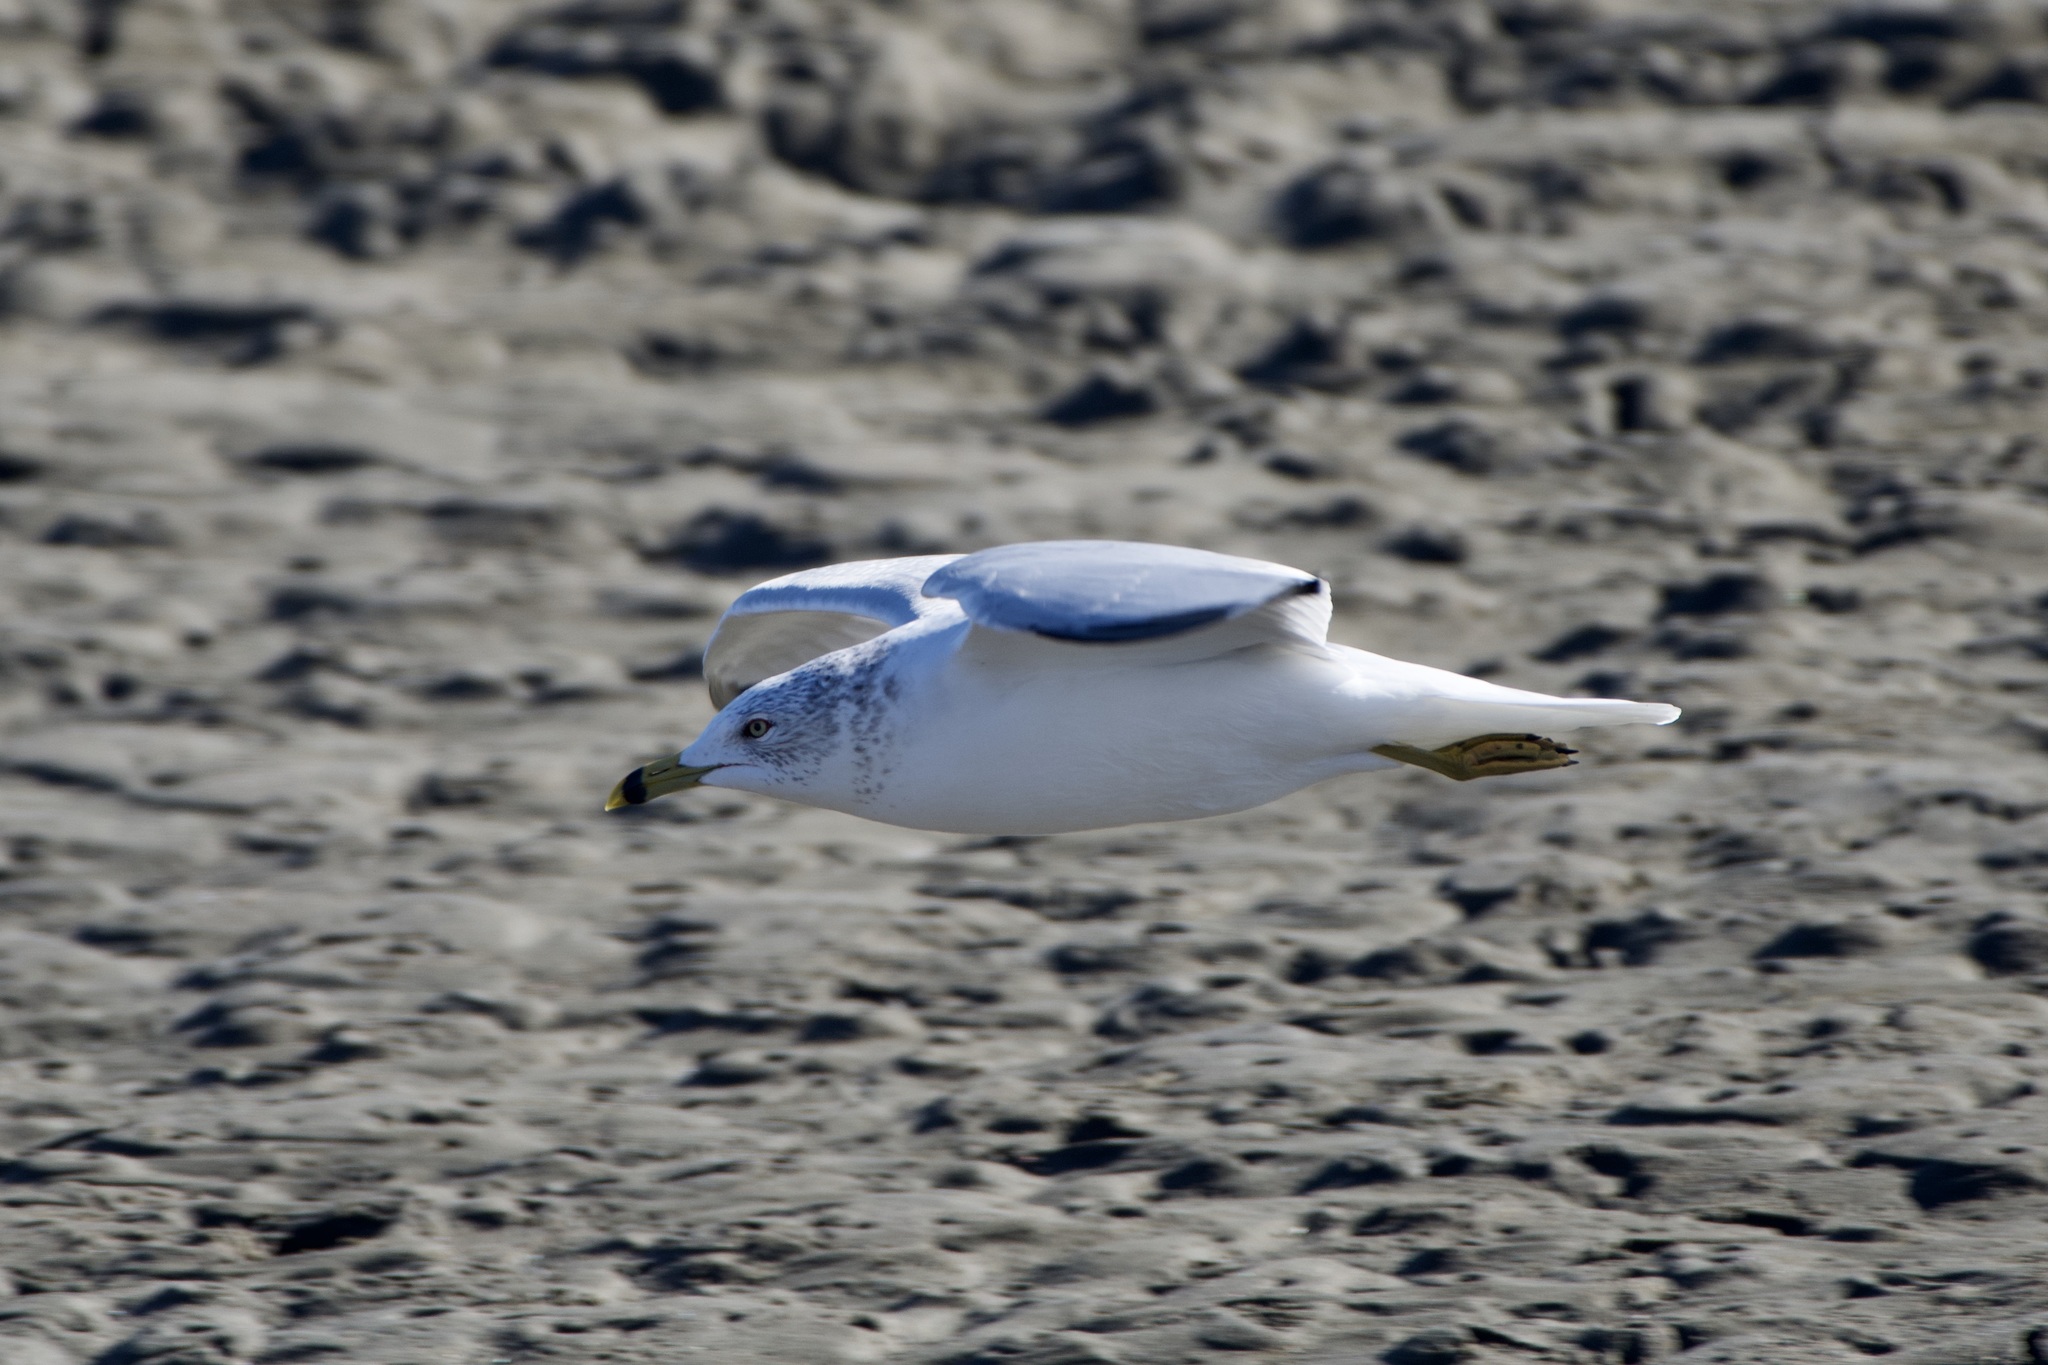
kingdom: Animalia
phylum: Chordata
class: Aves
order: Charadriiformes
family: Laridae
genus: Larus
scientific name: Larus delawarensis
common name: Ring-billed gull
